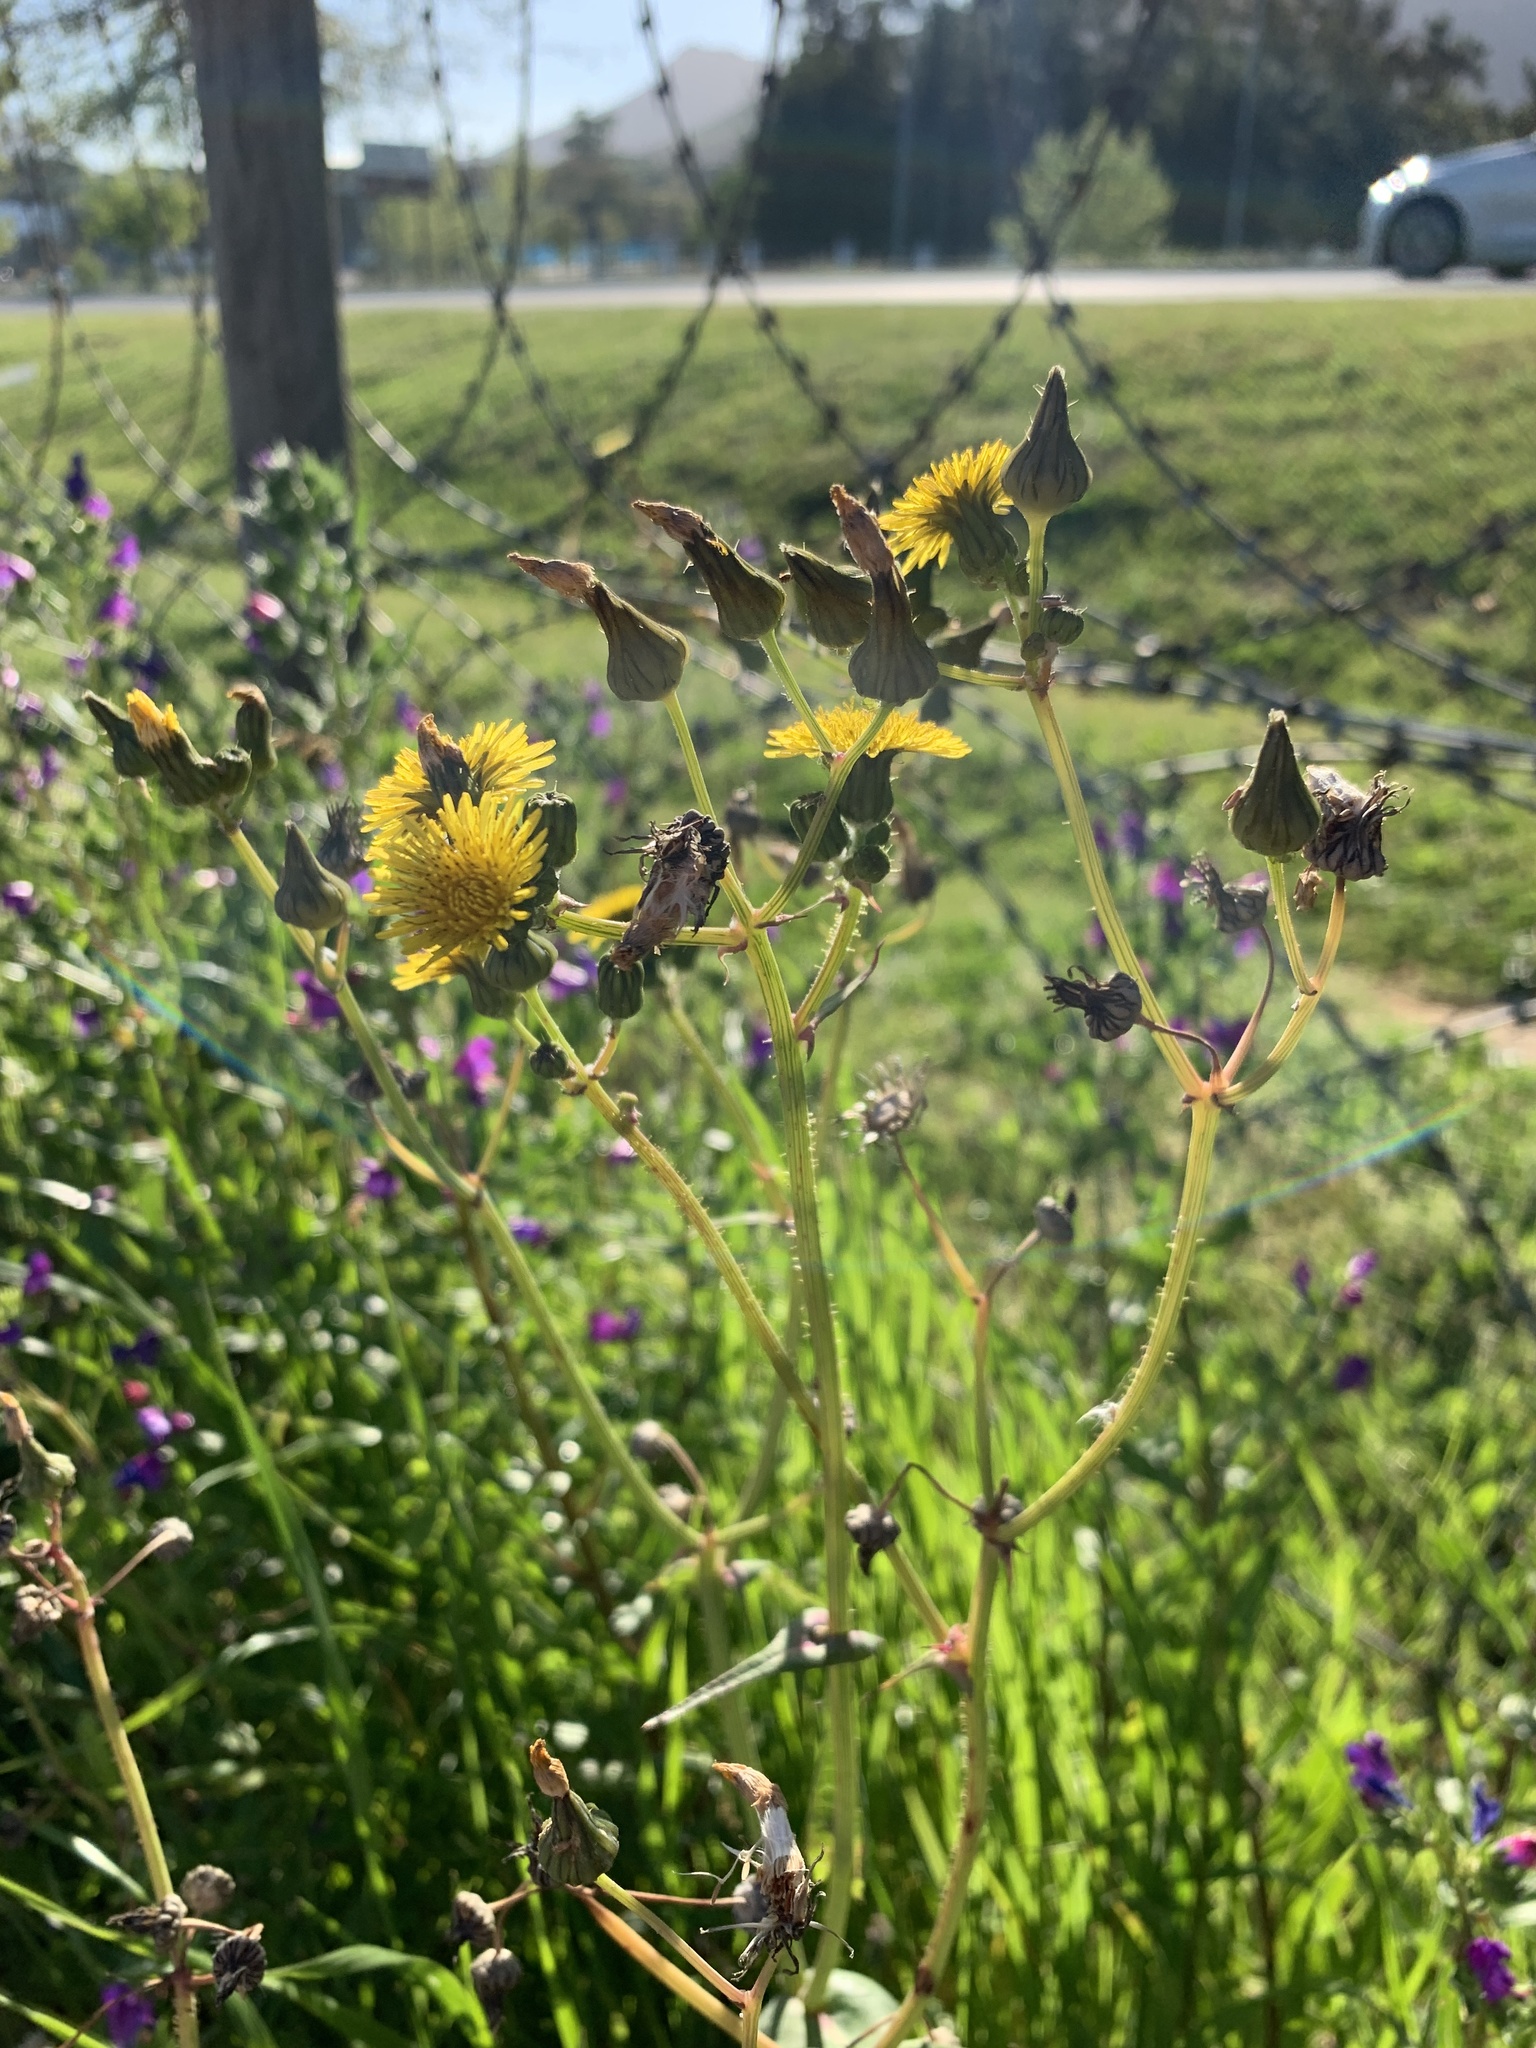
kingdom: Plantae
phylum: Tracheophyta
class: Magnoliopsida
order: Asterales
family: Asteraceae
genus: Sonchus
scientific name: Sonchus oleraceus
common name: Common sowthistle
